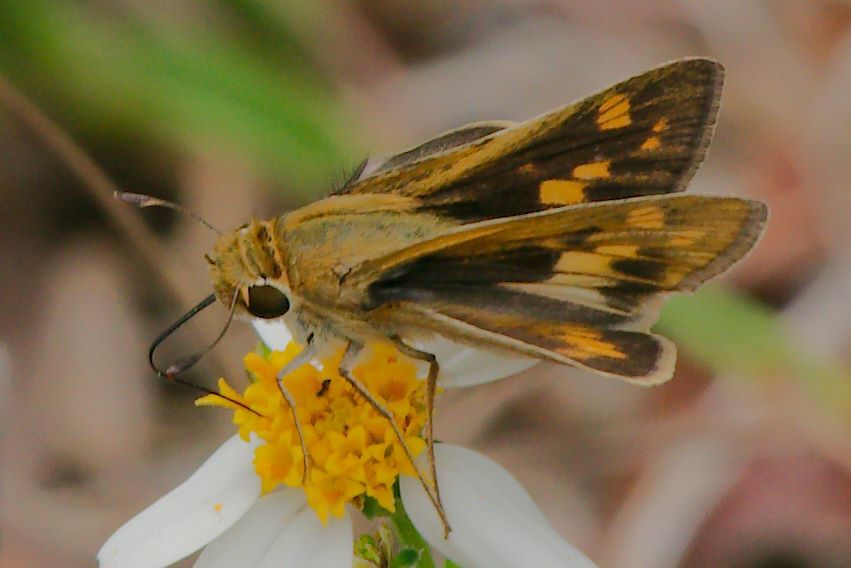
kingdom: Animalia
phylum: Arthropoda
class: Insecta
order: Lepidoptera
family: Hesperiidae
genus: Hylephila
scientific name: Hylephila phyleus
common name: Fiery skipper
